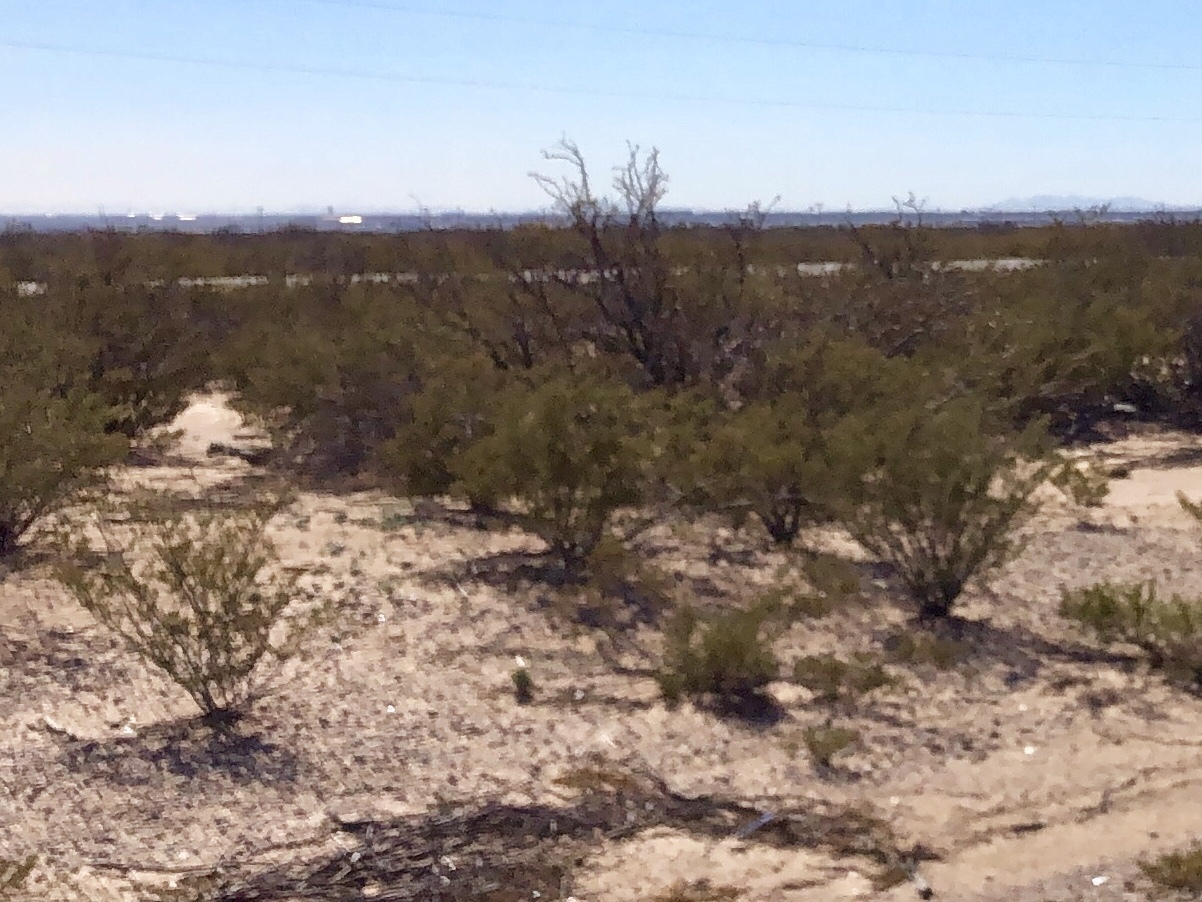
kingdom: Plantae
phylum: Tracheophyta
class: Magnoliopsida
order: Zygophyllales
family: Zygophyllaceae
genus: Larrea
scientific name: Larrea tridentata
